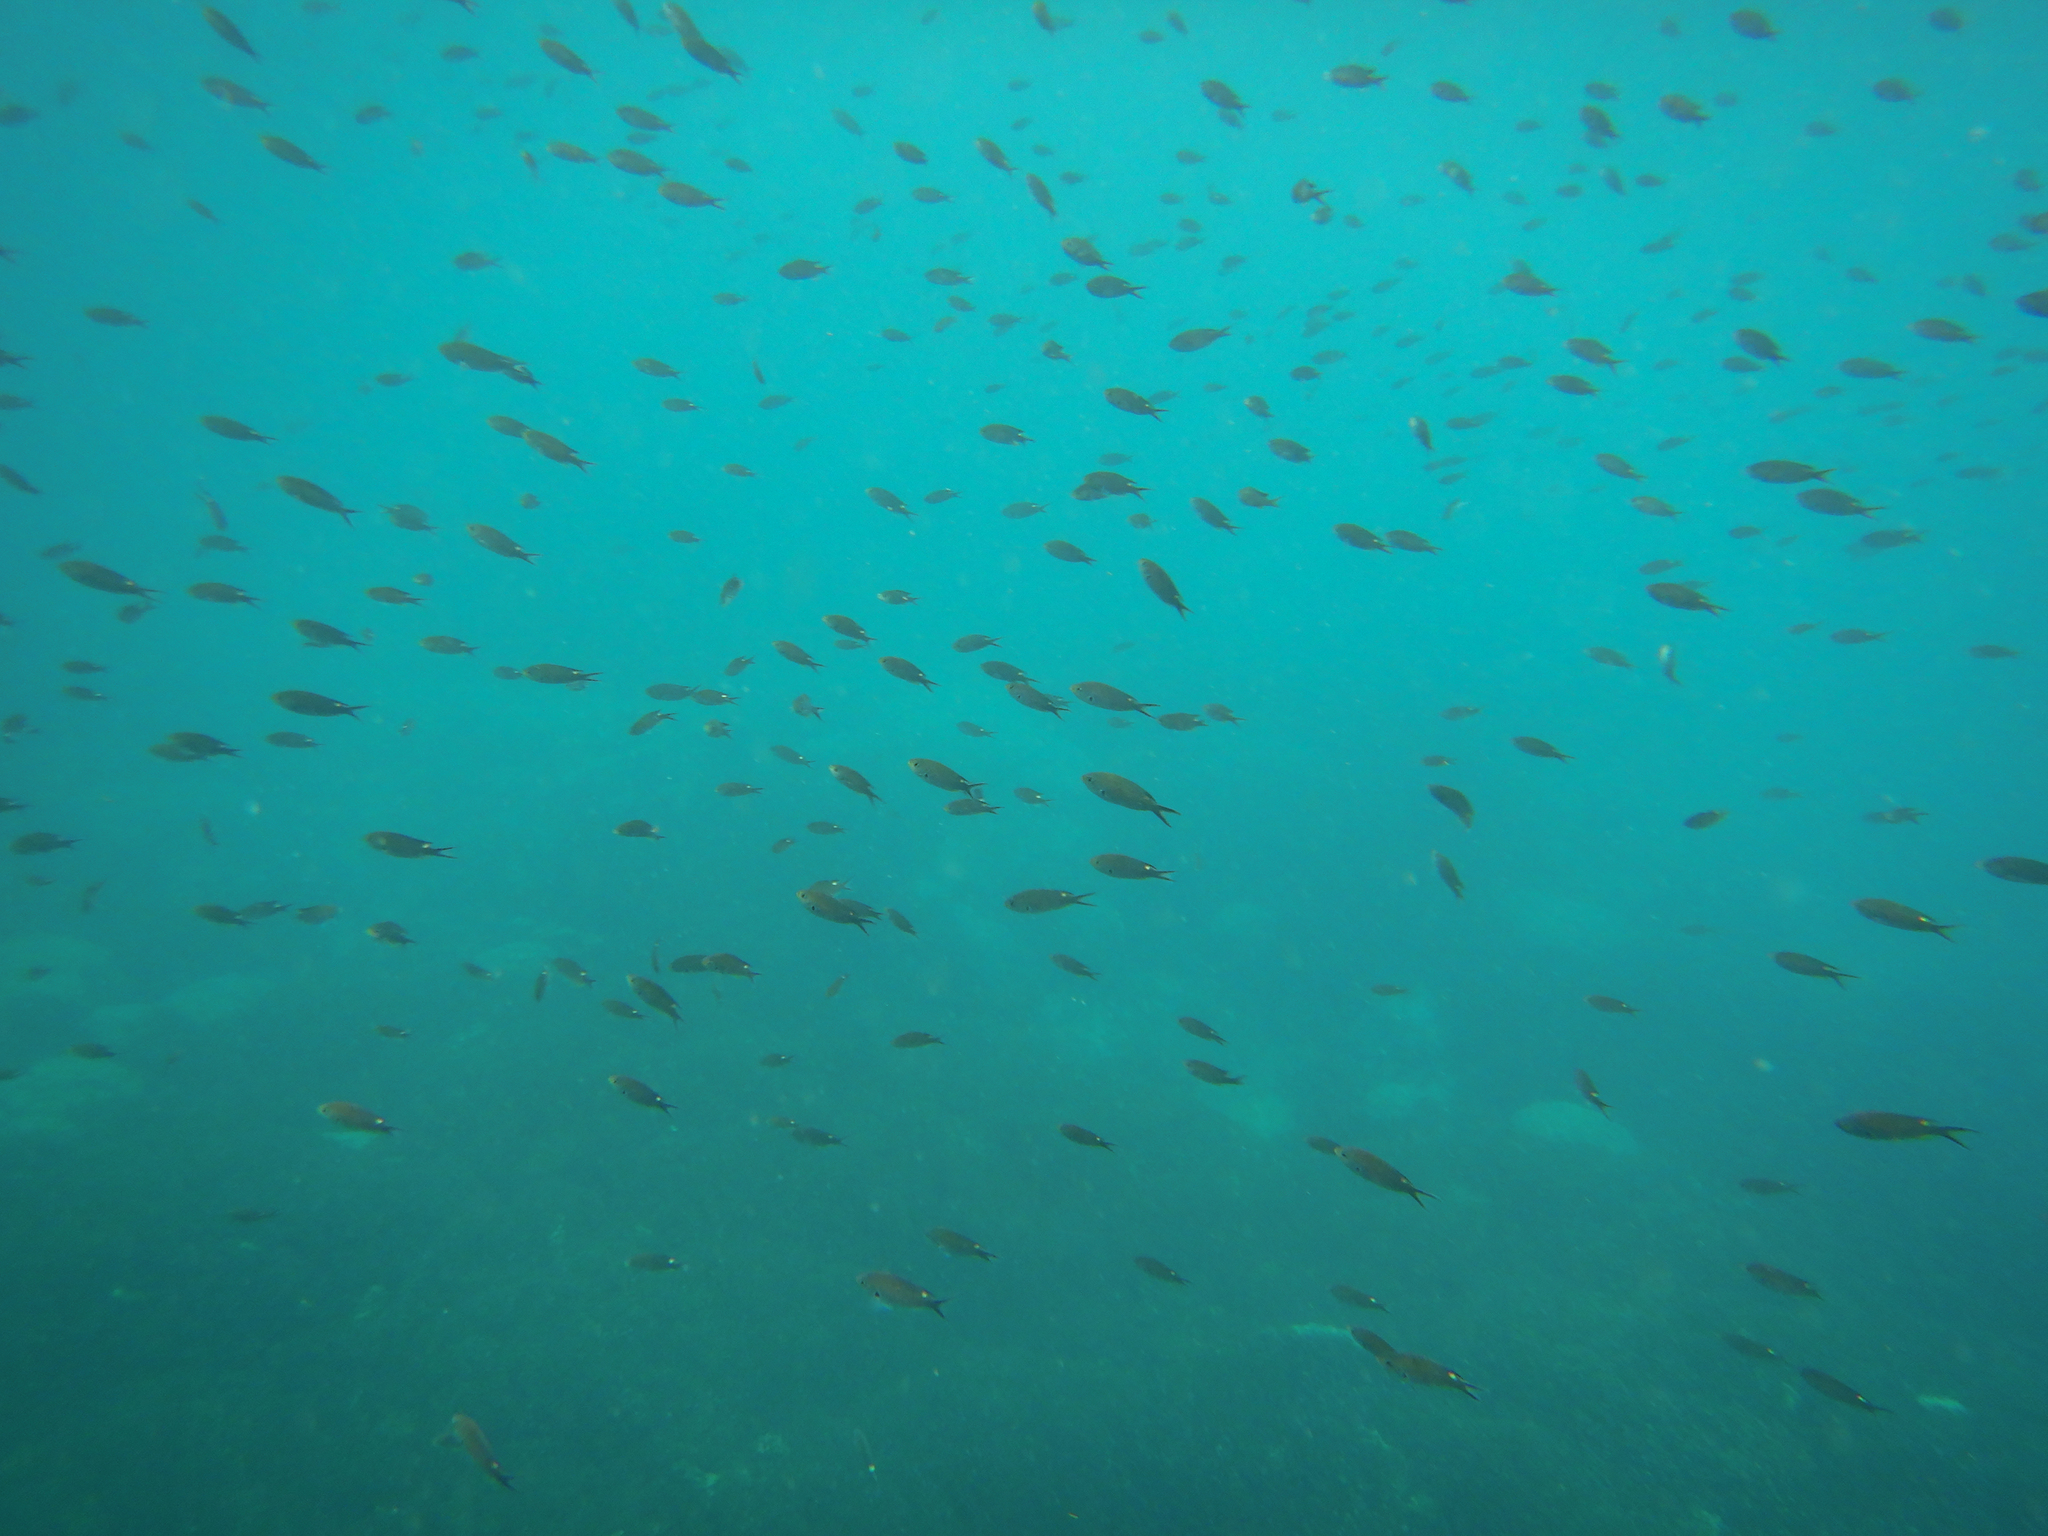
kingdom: Animalia
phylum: Chordata
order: Perciformes
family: Pomacentridae
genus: Chromis
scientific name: Chromis atrilobata
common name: Scissortail damselfish
